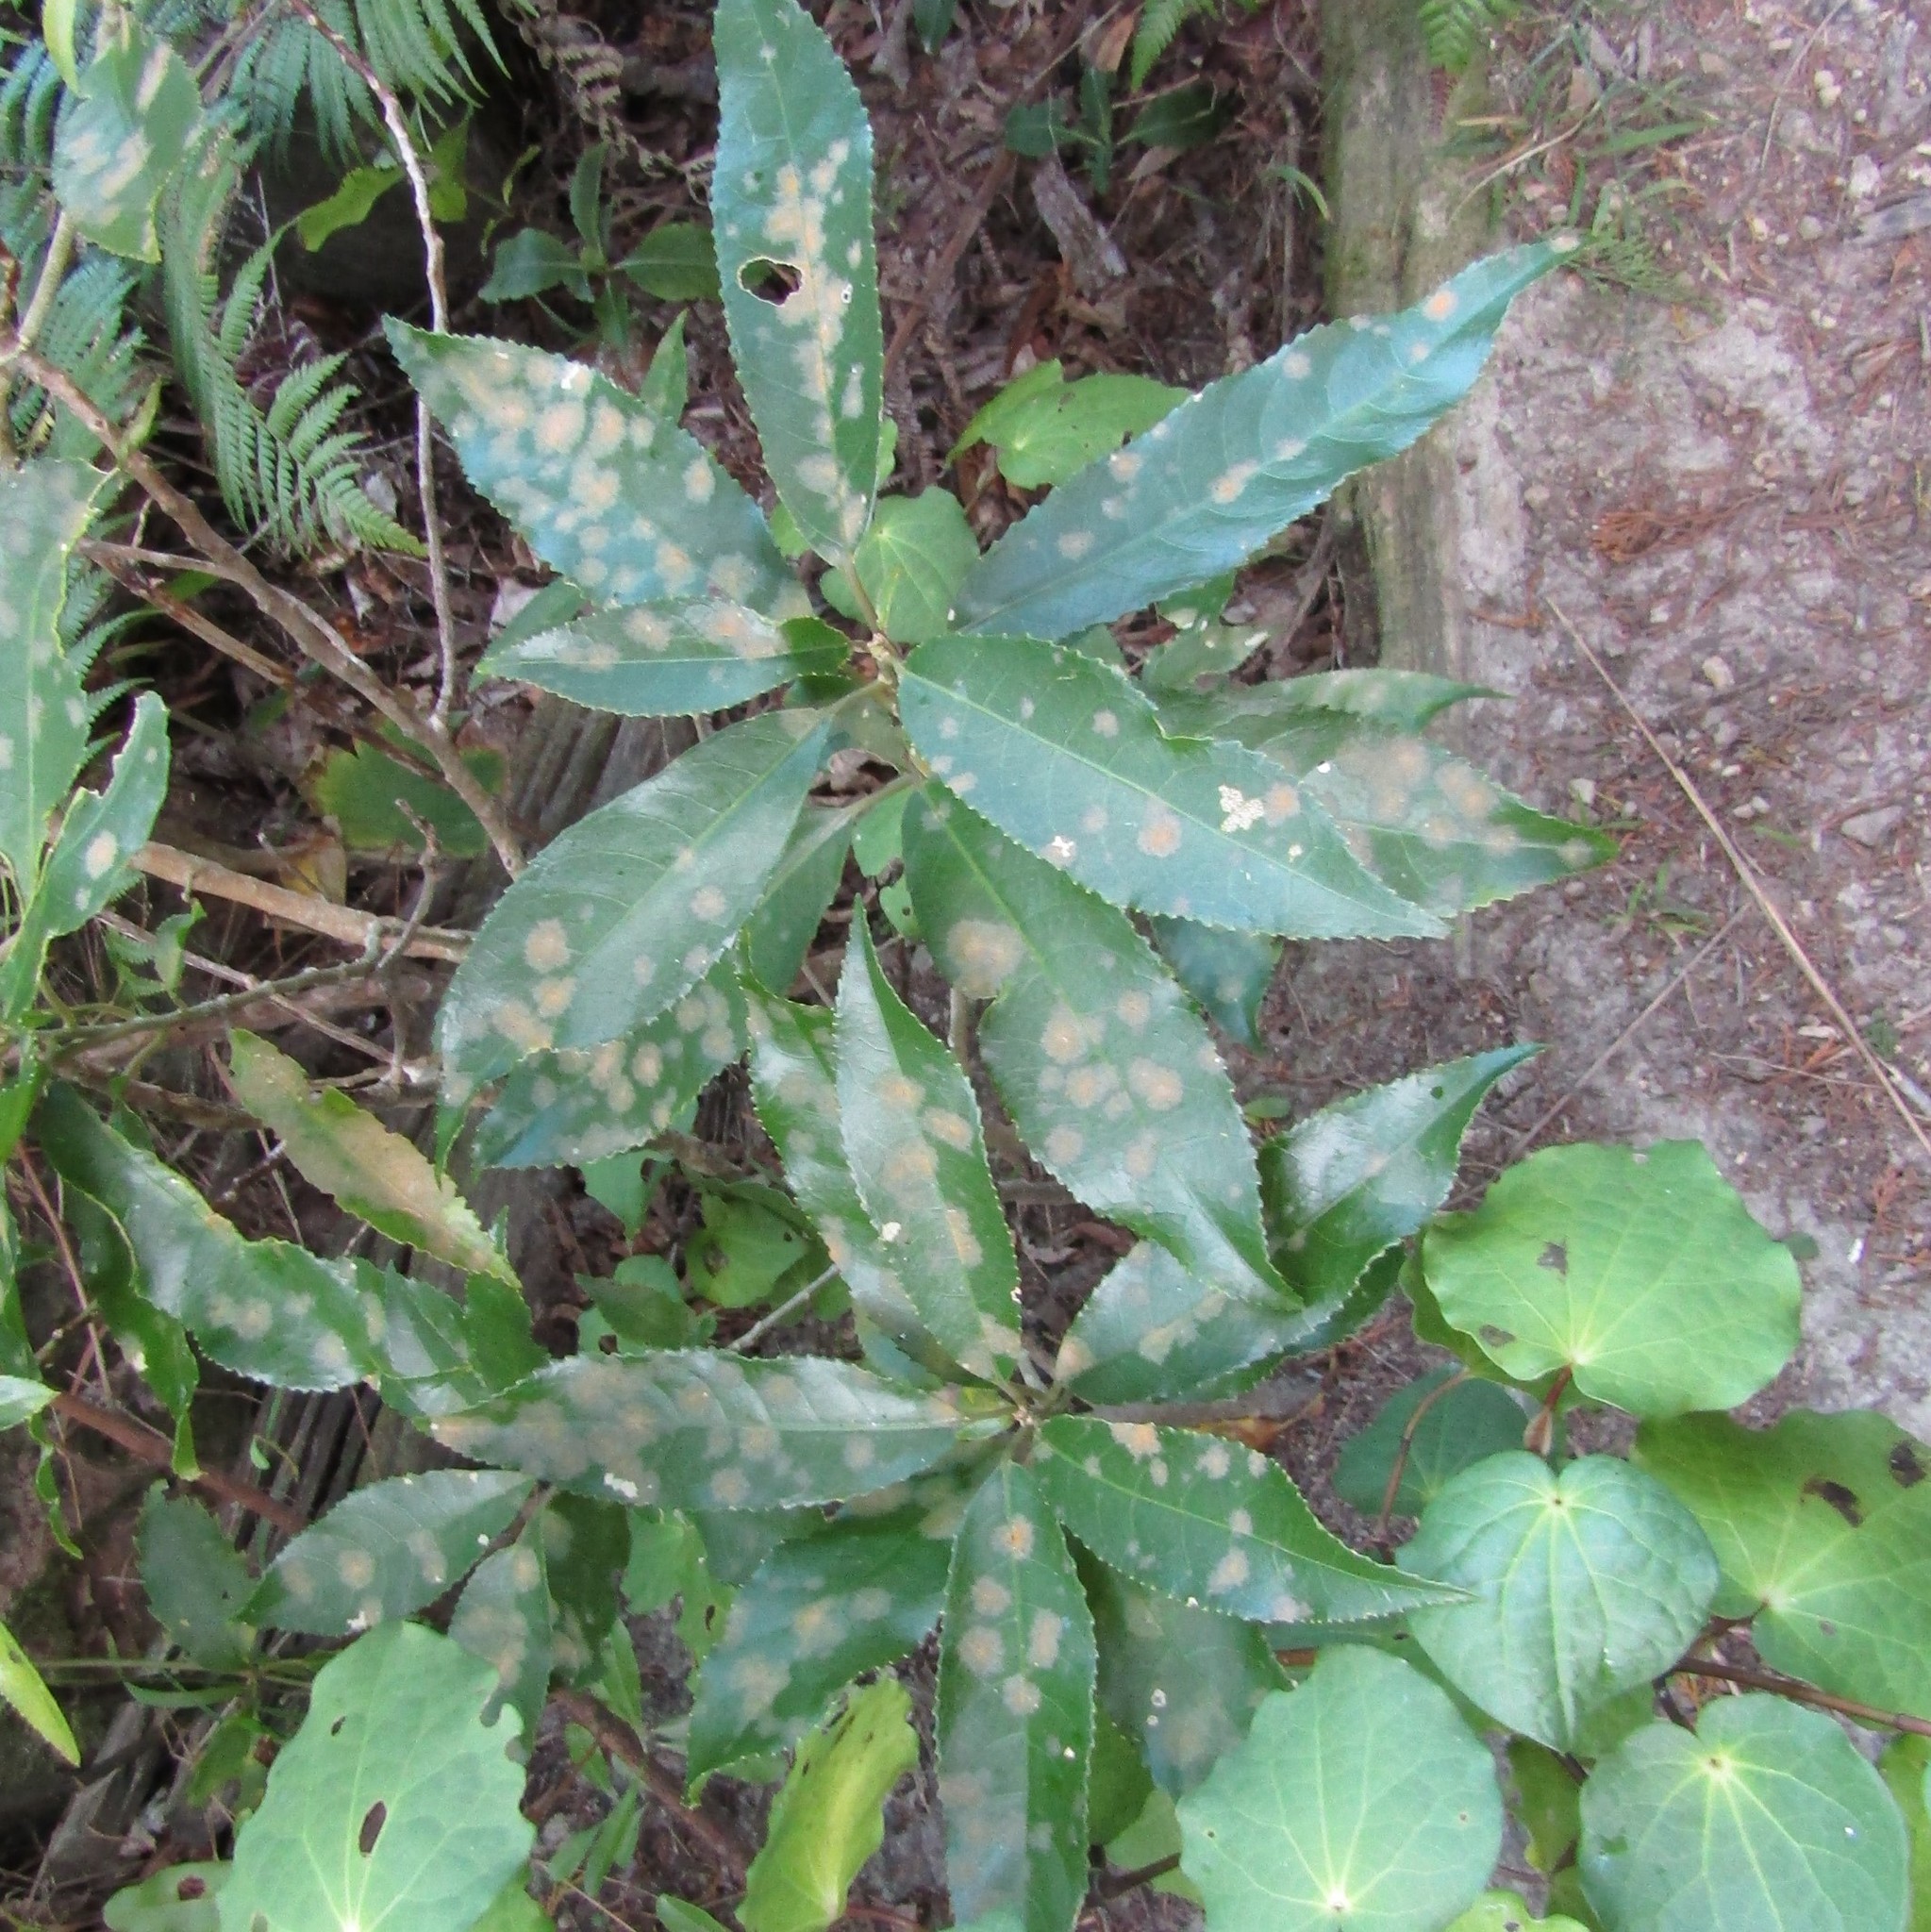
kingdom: Plantae
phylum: Tracheophyta
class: Magnoliopsida
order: Malpighiales
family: Violaceae
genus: Melicytus
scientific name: Melicytus ramiflorus
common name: Mahoe
